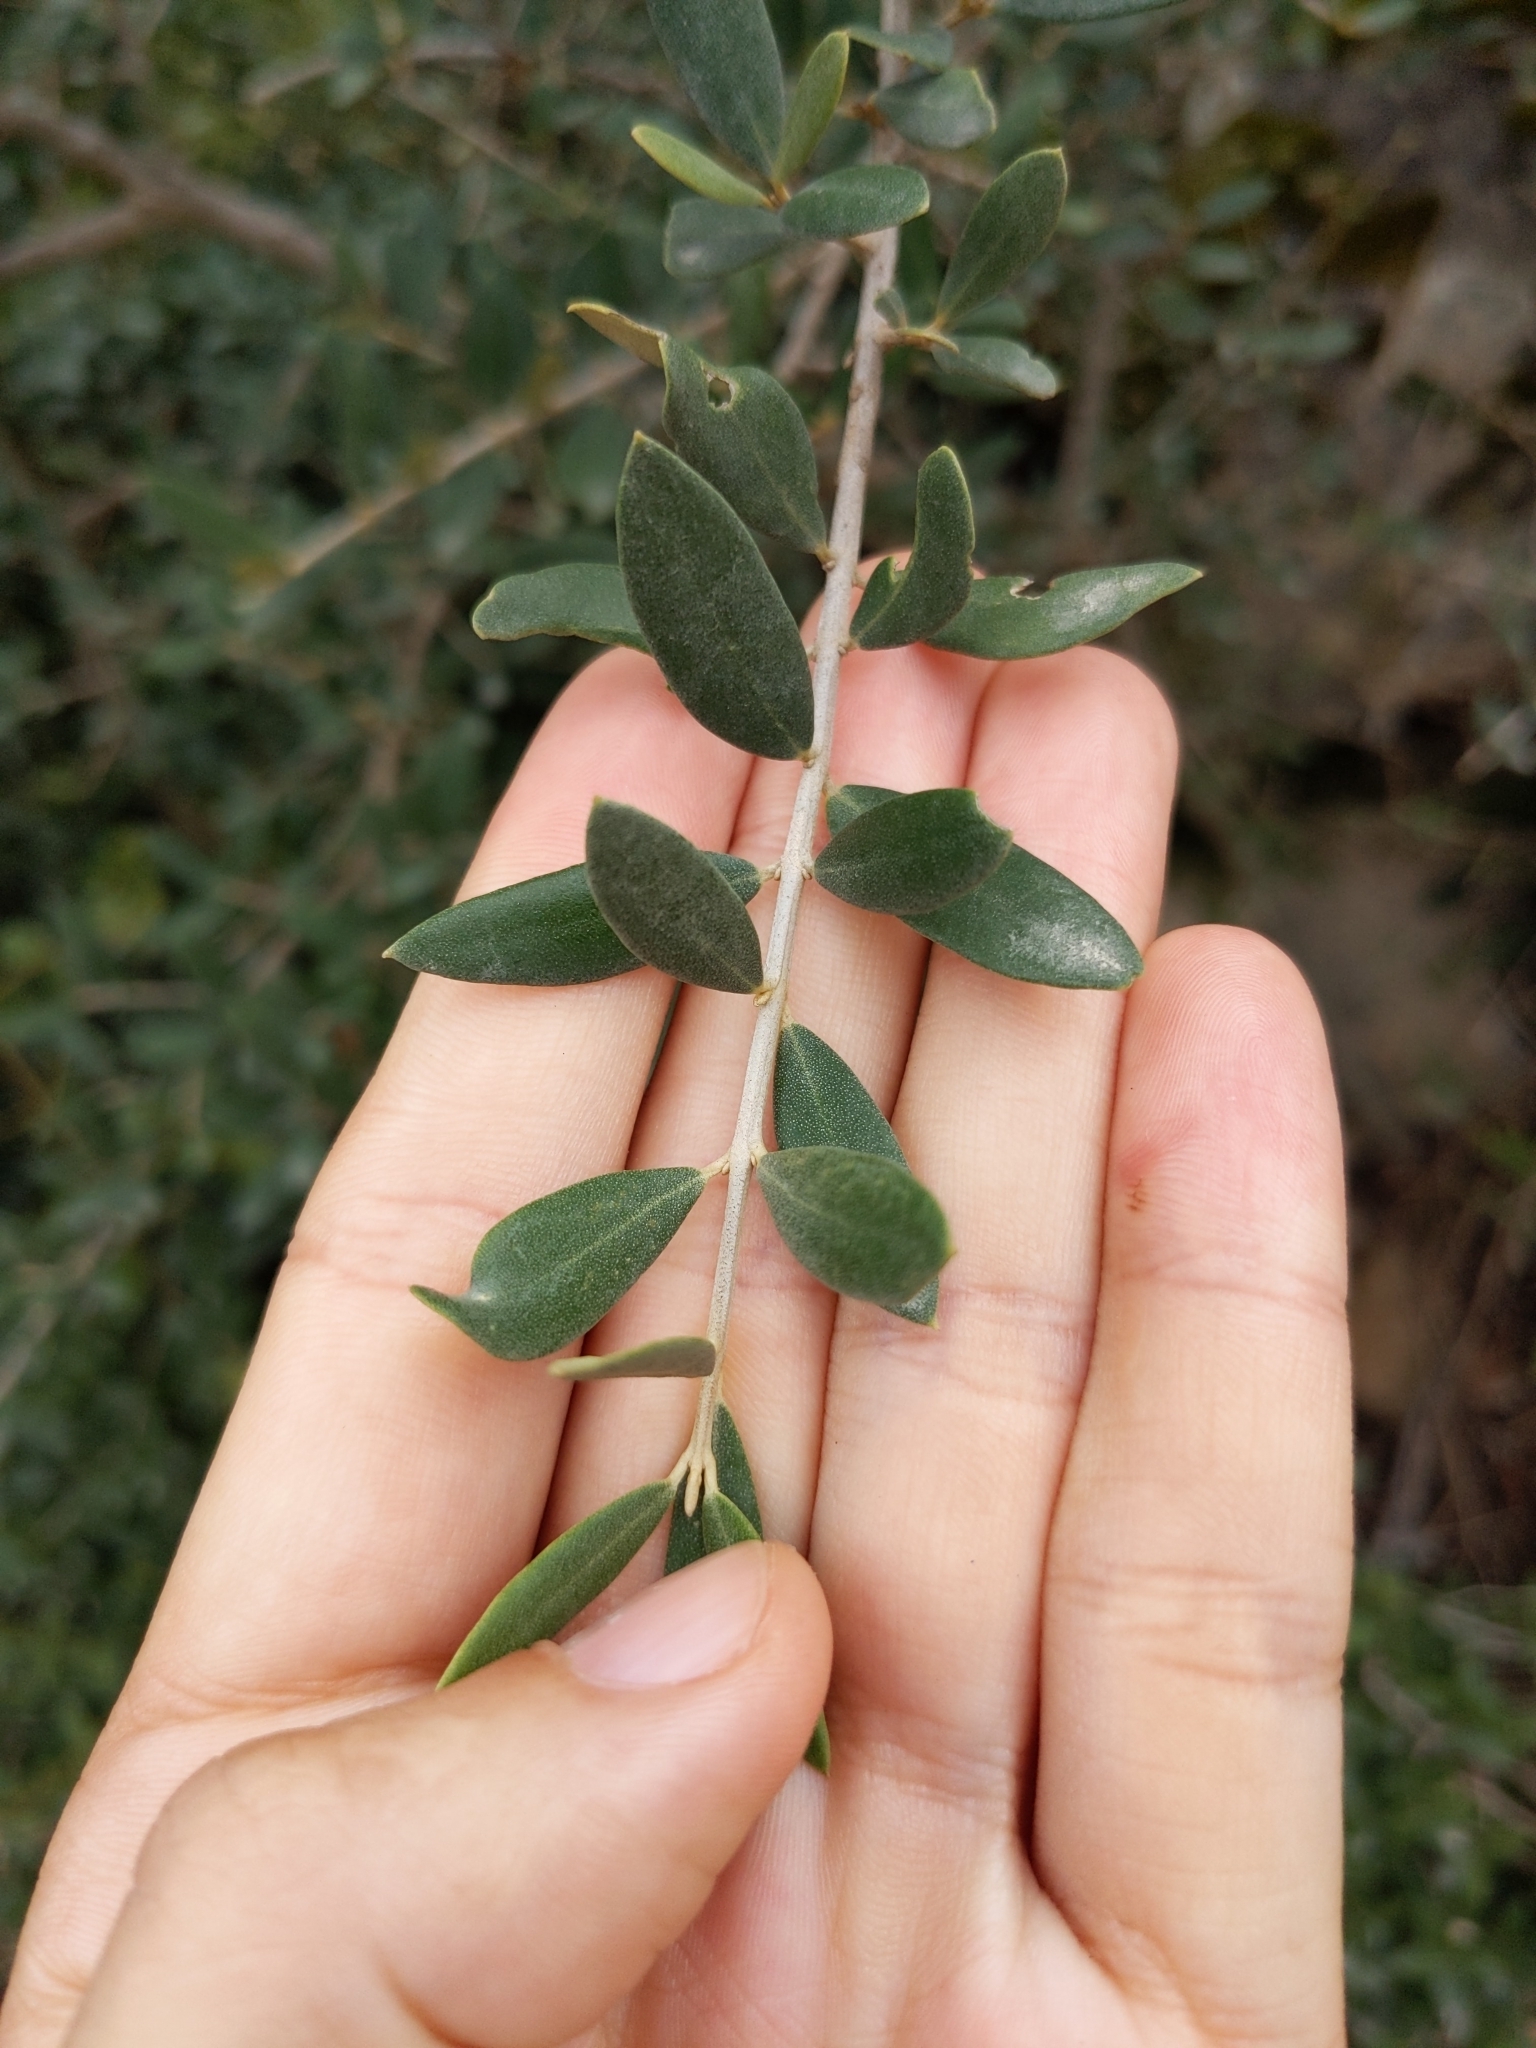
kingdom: Plantae
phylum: Tracheophyta
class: Magnoliopsida
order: Lamiales
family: Oleaceae
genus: Olea
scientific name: Olea europaea
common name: Olive
